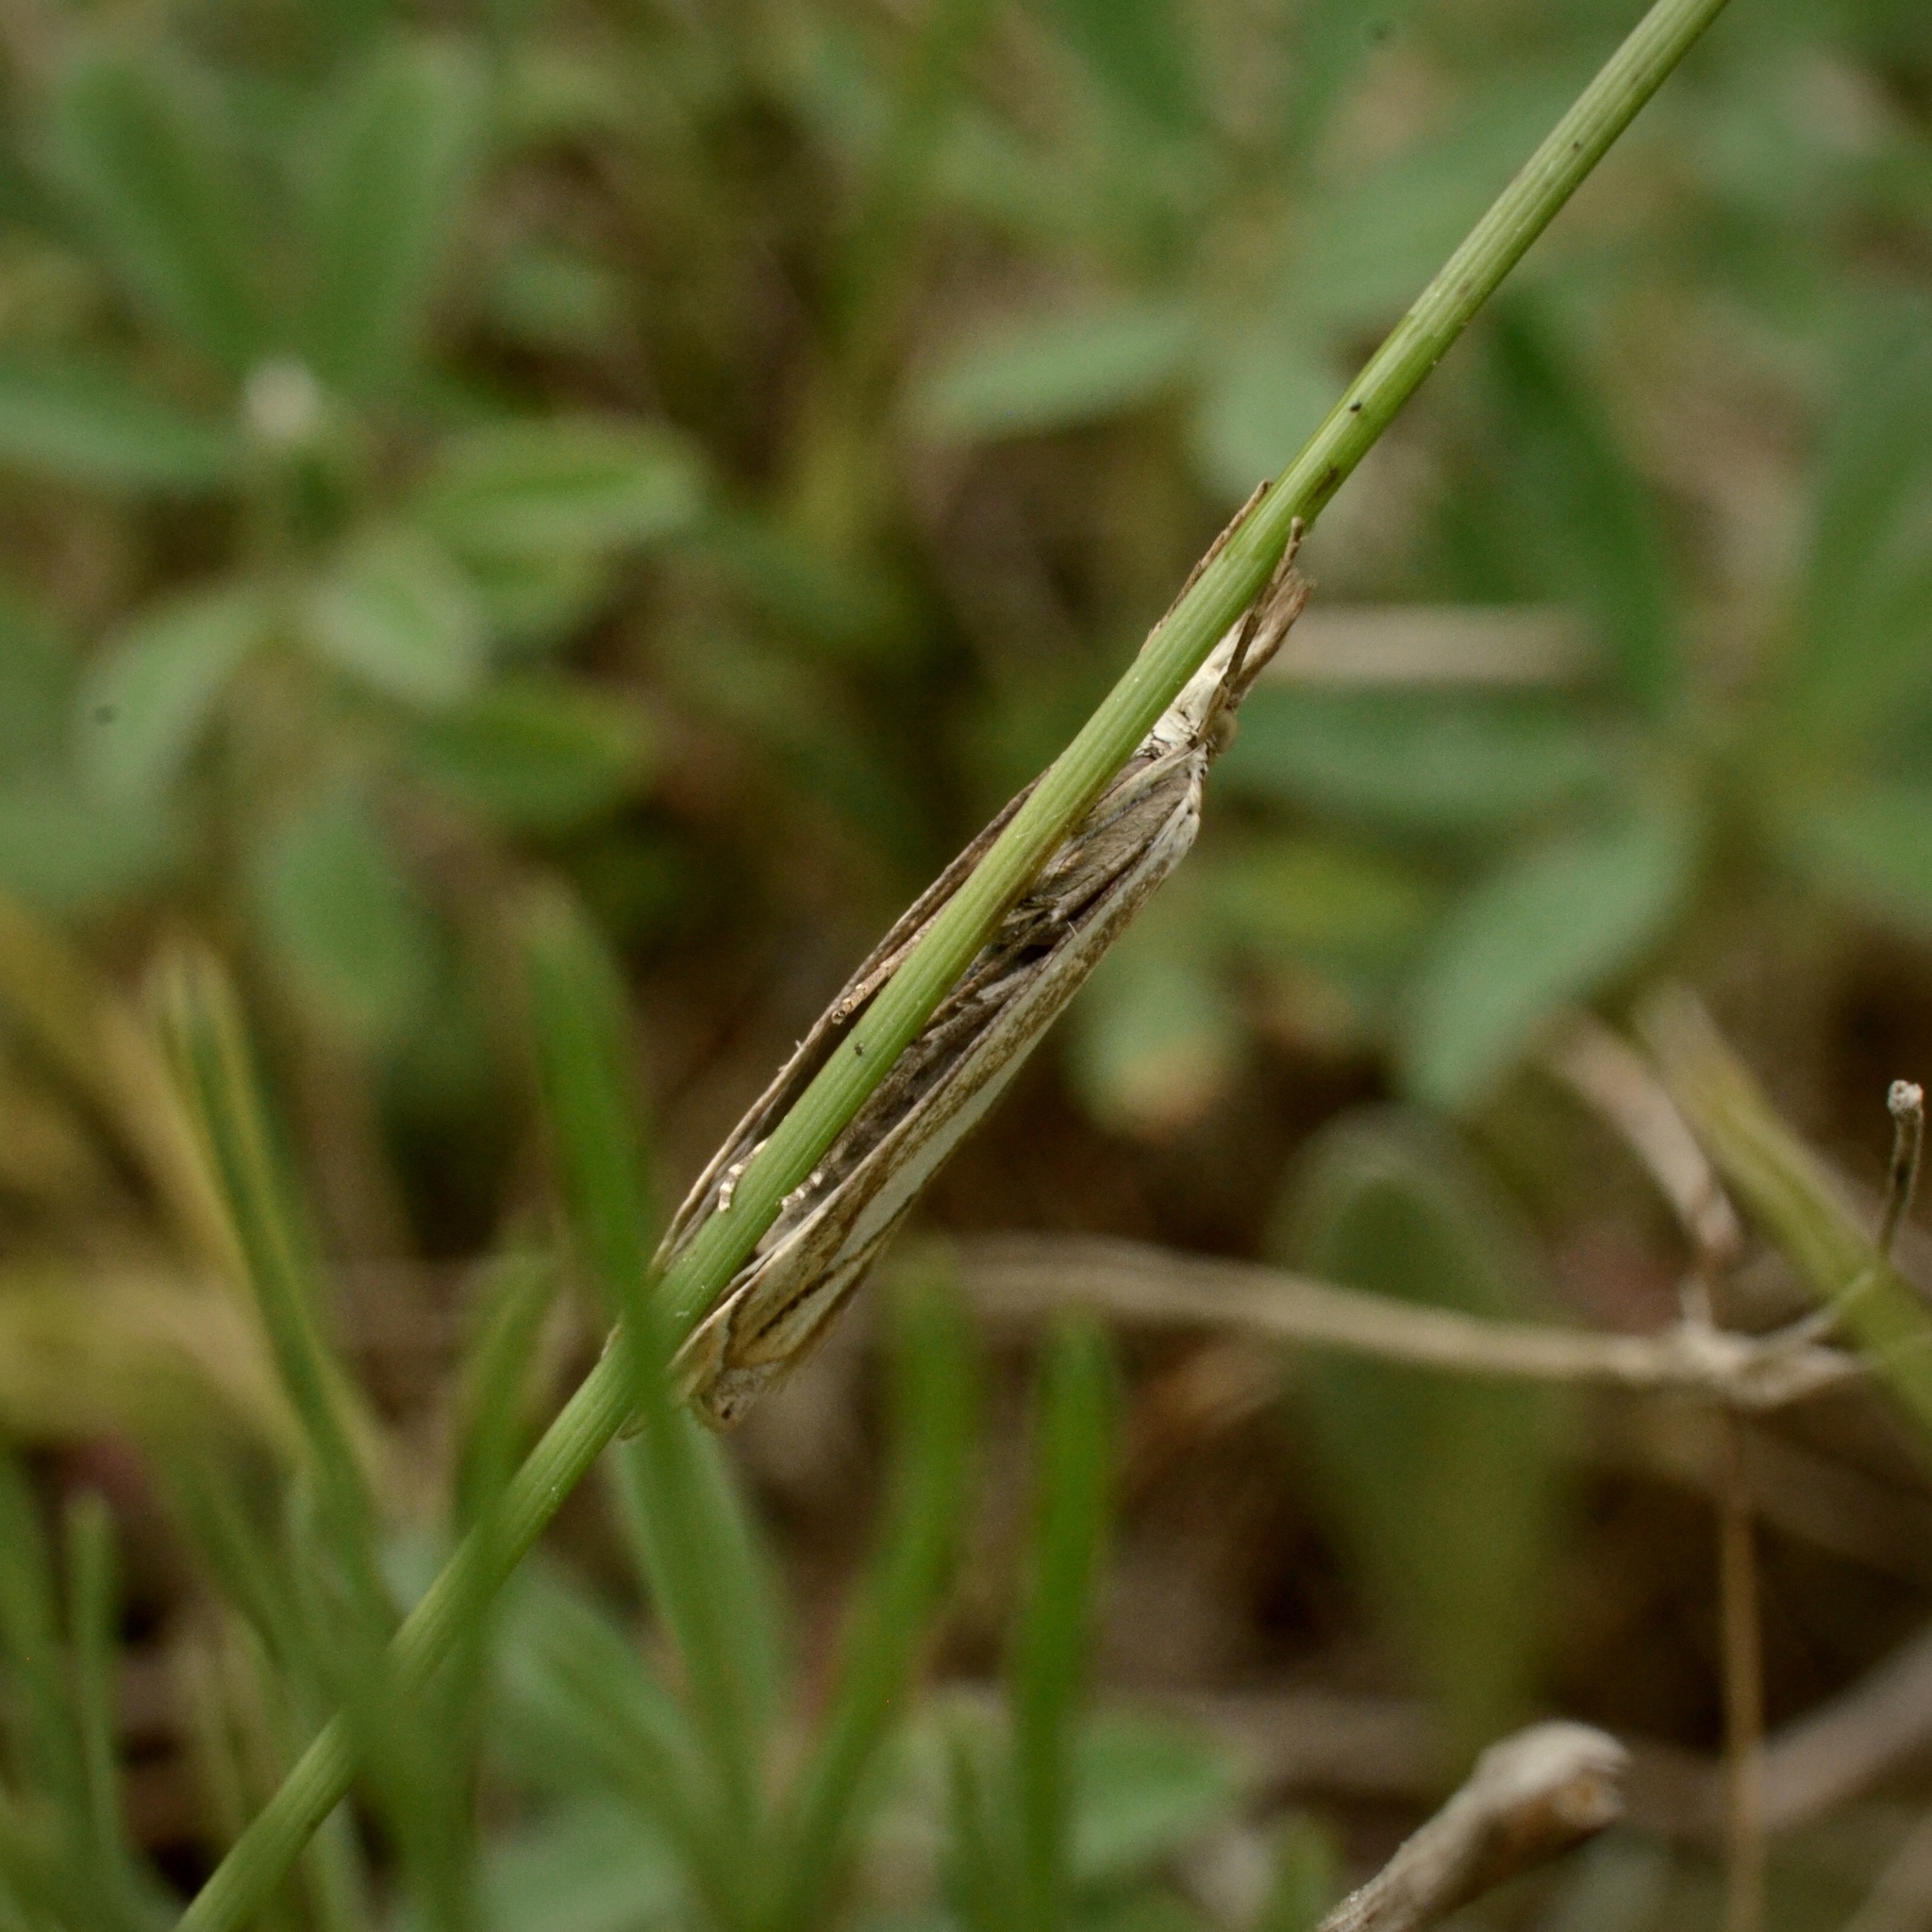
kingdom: Animalia
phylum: Arthropoda
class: Insecta
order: Lepidoptera
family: Crambidae
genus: Crambus
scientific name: Crambus pratella
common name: Scarce grass-veneer
